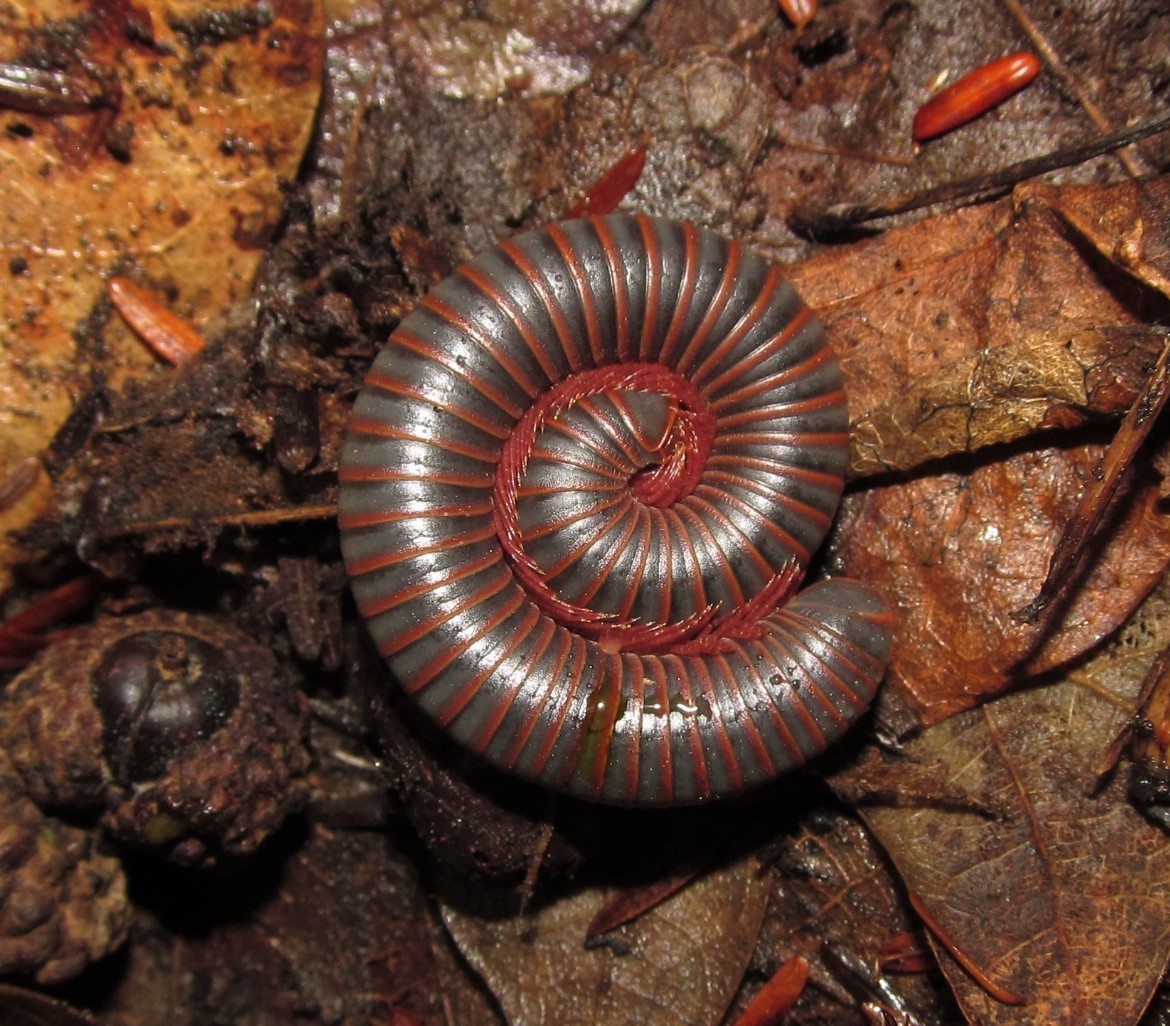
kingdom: Animalia
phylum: Arthropoda
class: Diplopoda
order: Spirobolida
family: Spirobolidae
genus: Narceus
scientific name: Narceus
